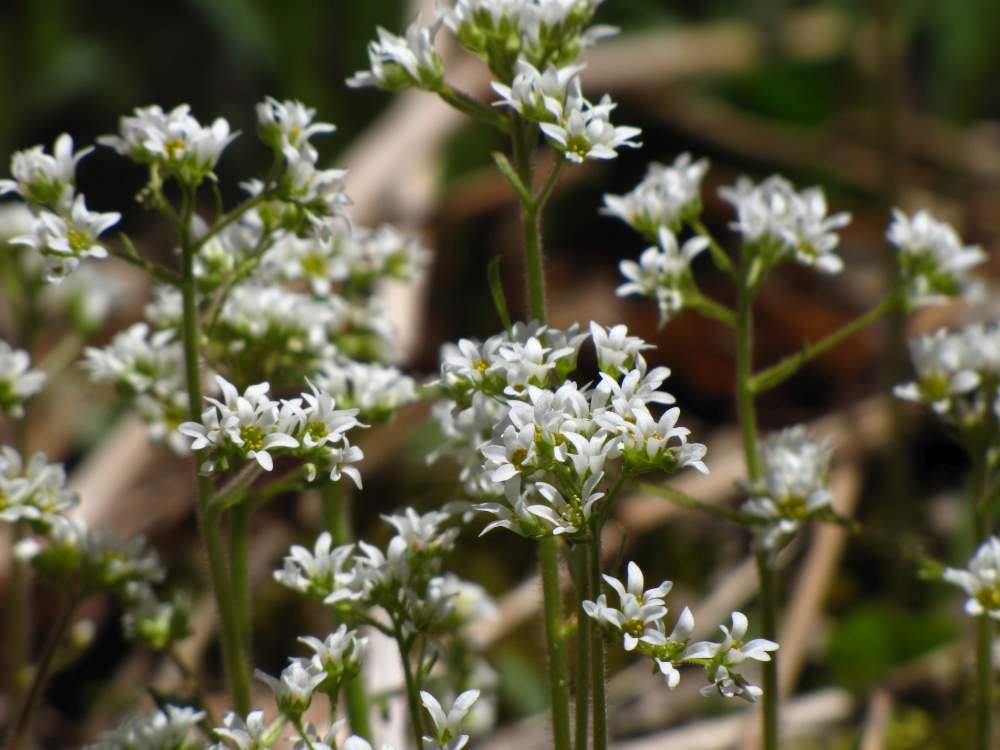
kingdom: Plantae
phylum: Tracheophyta
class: Magnoliopsida
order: Saxifragales
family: Saxifragaceae
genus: Micranthes
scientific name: Micranthes virginiensis
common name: Early saxifrage
